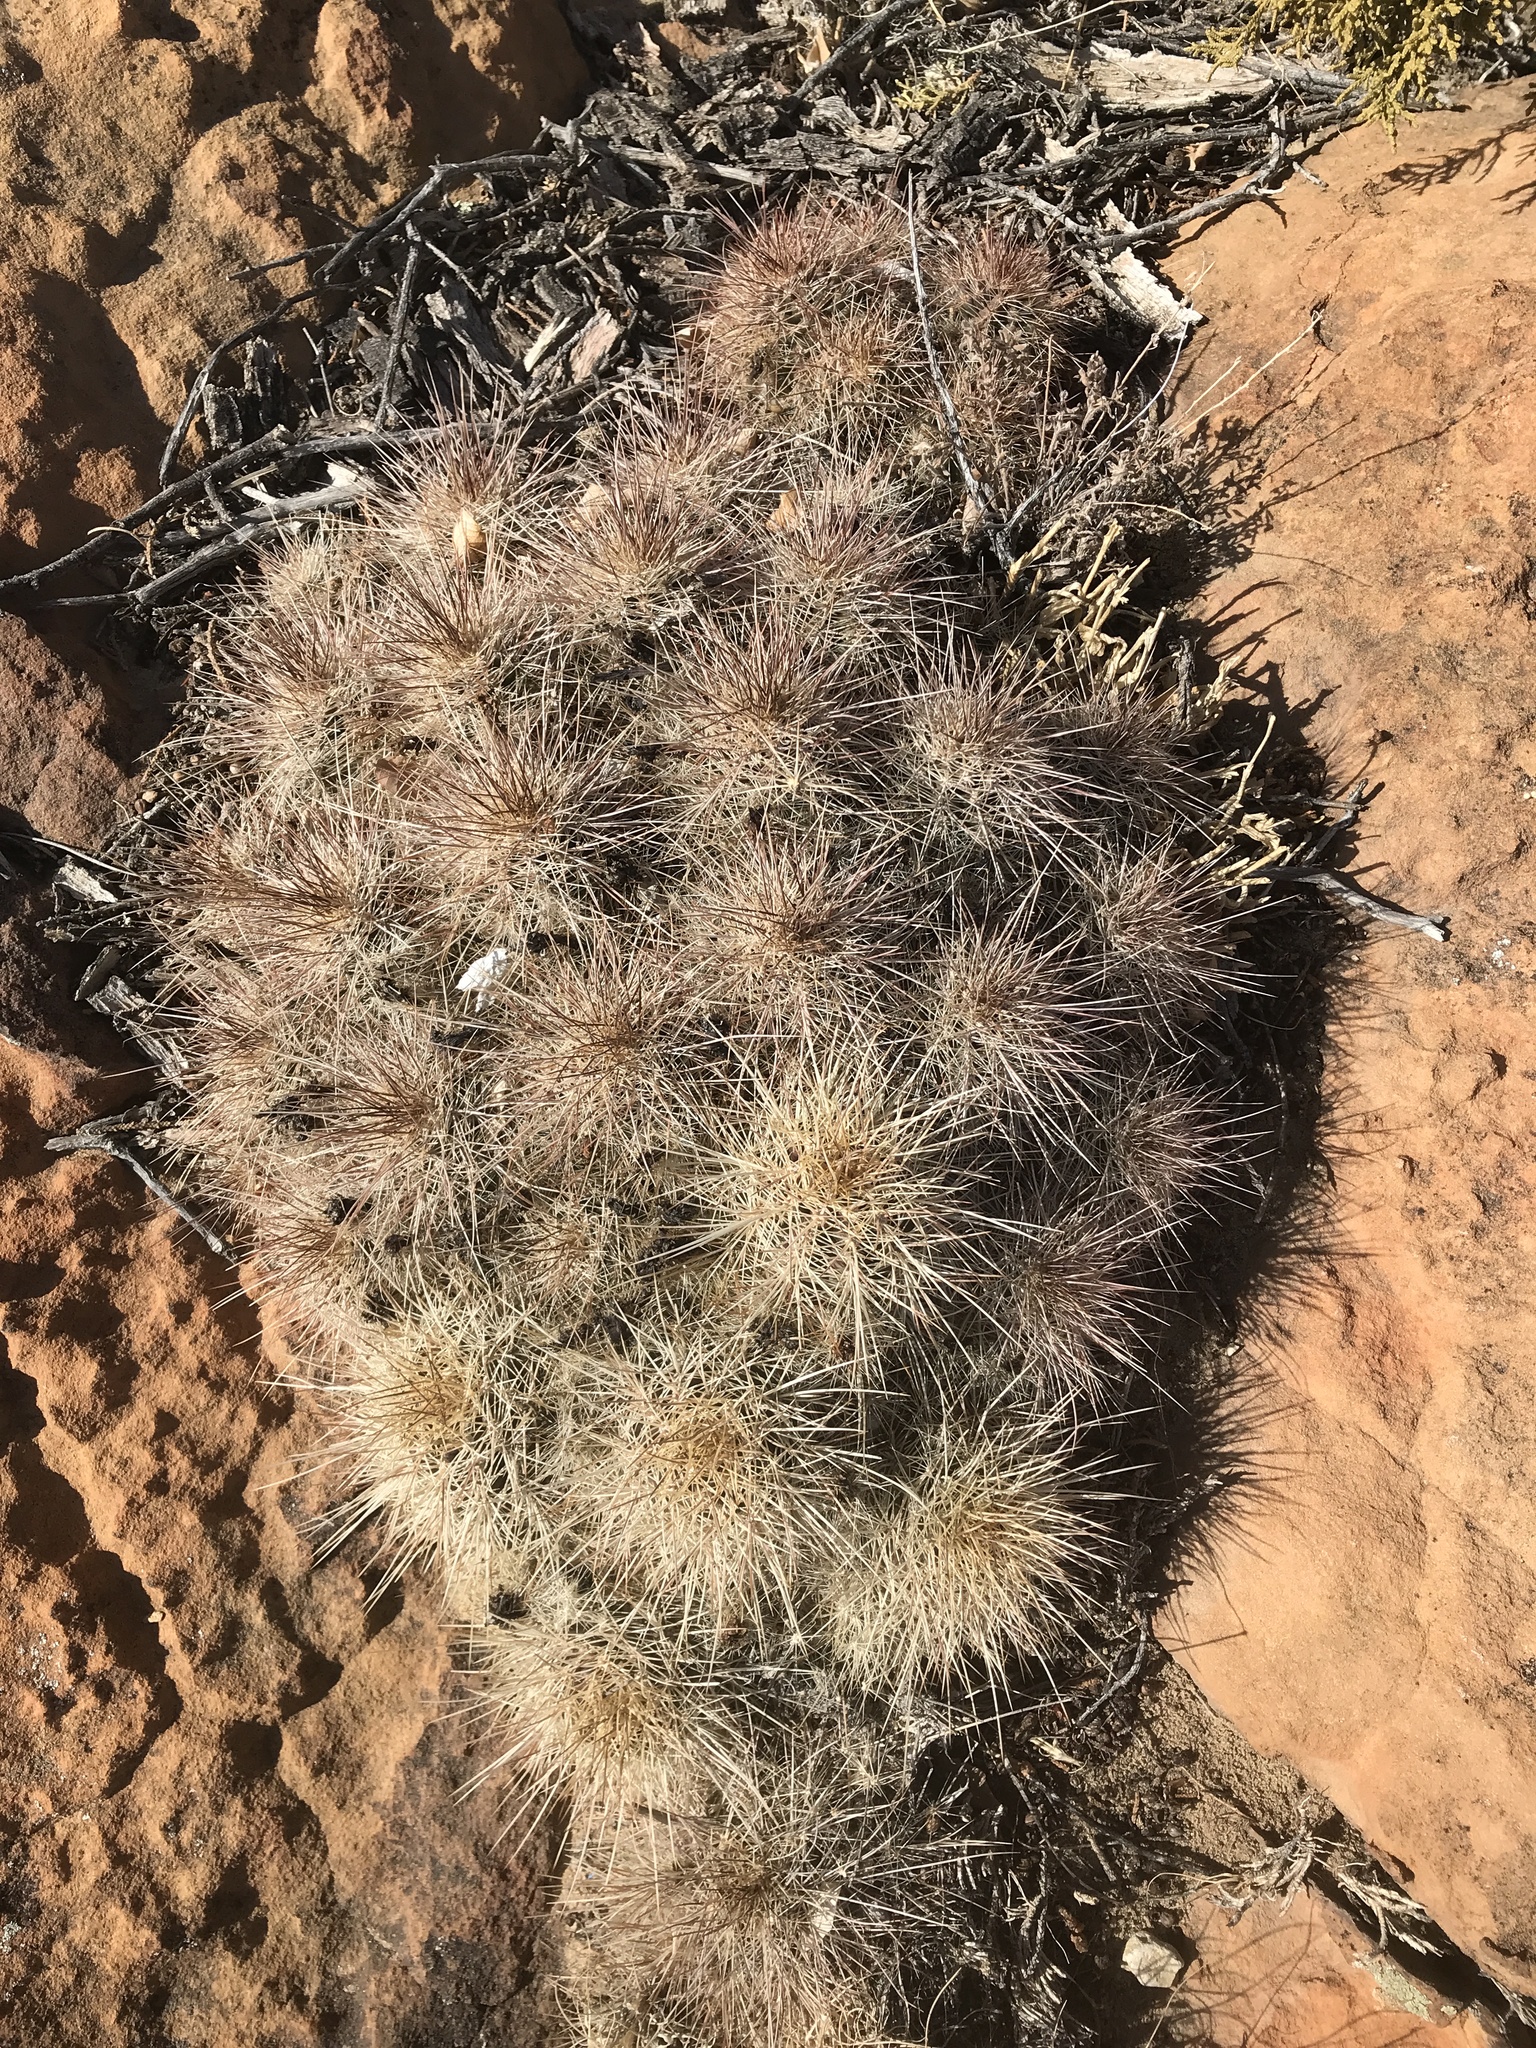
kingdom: Plantae
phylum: Tracheophyta
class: Magnoliopsida
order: Caryophyllales
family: Cactaceae
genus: Echinocereus
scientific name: Echinocereus coccineus
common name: Scarlet hedgehog cactus
